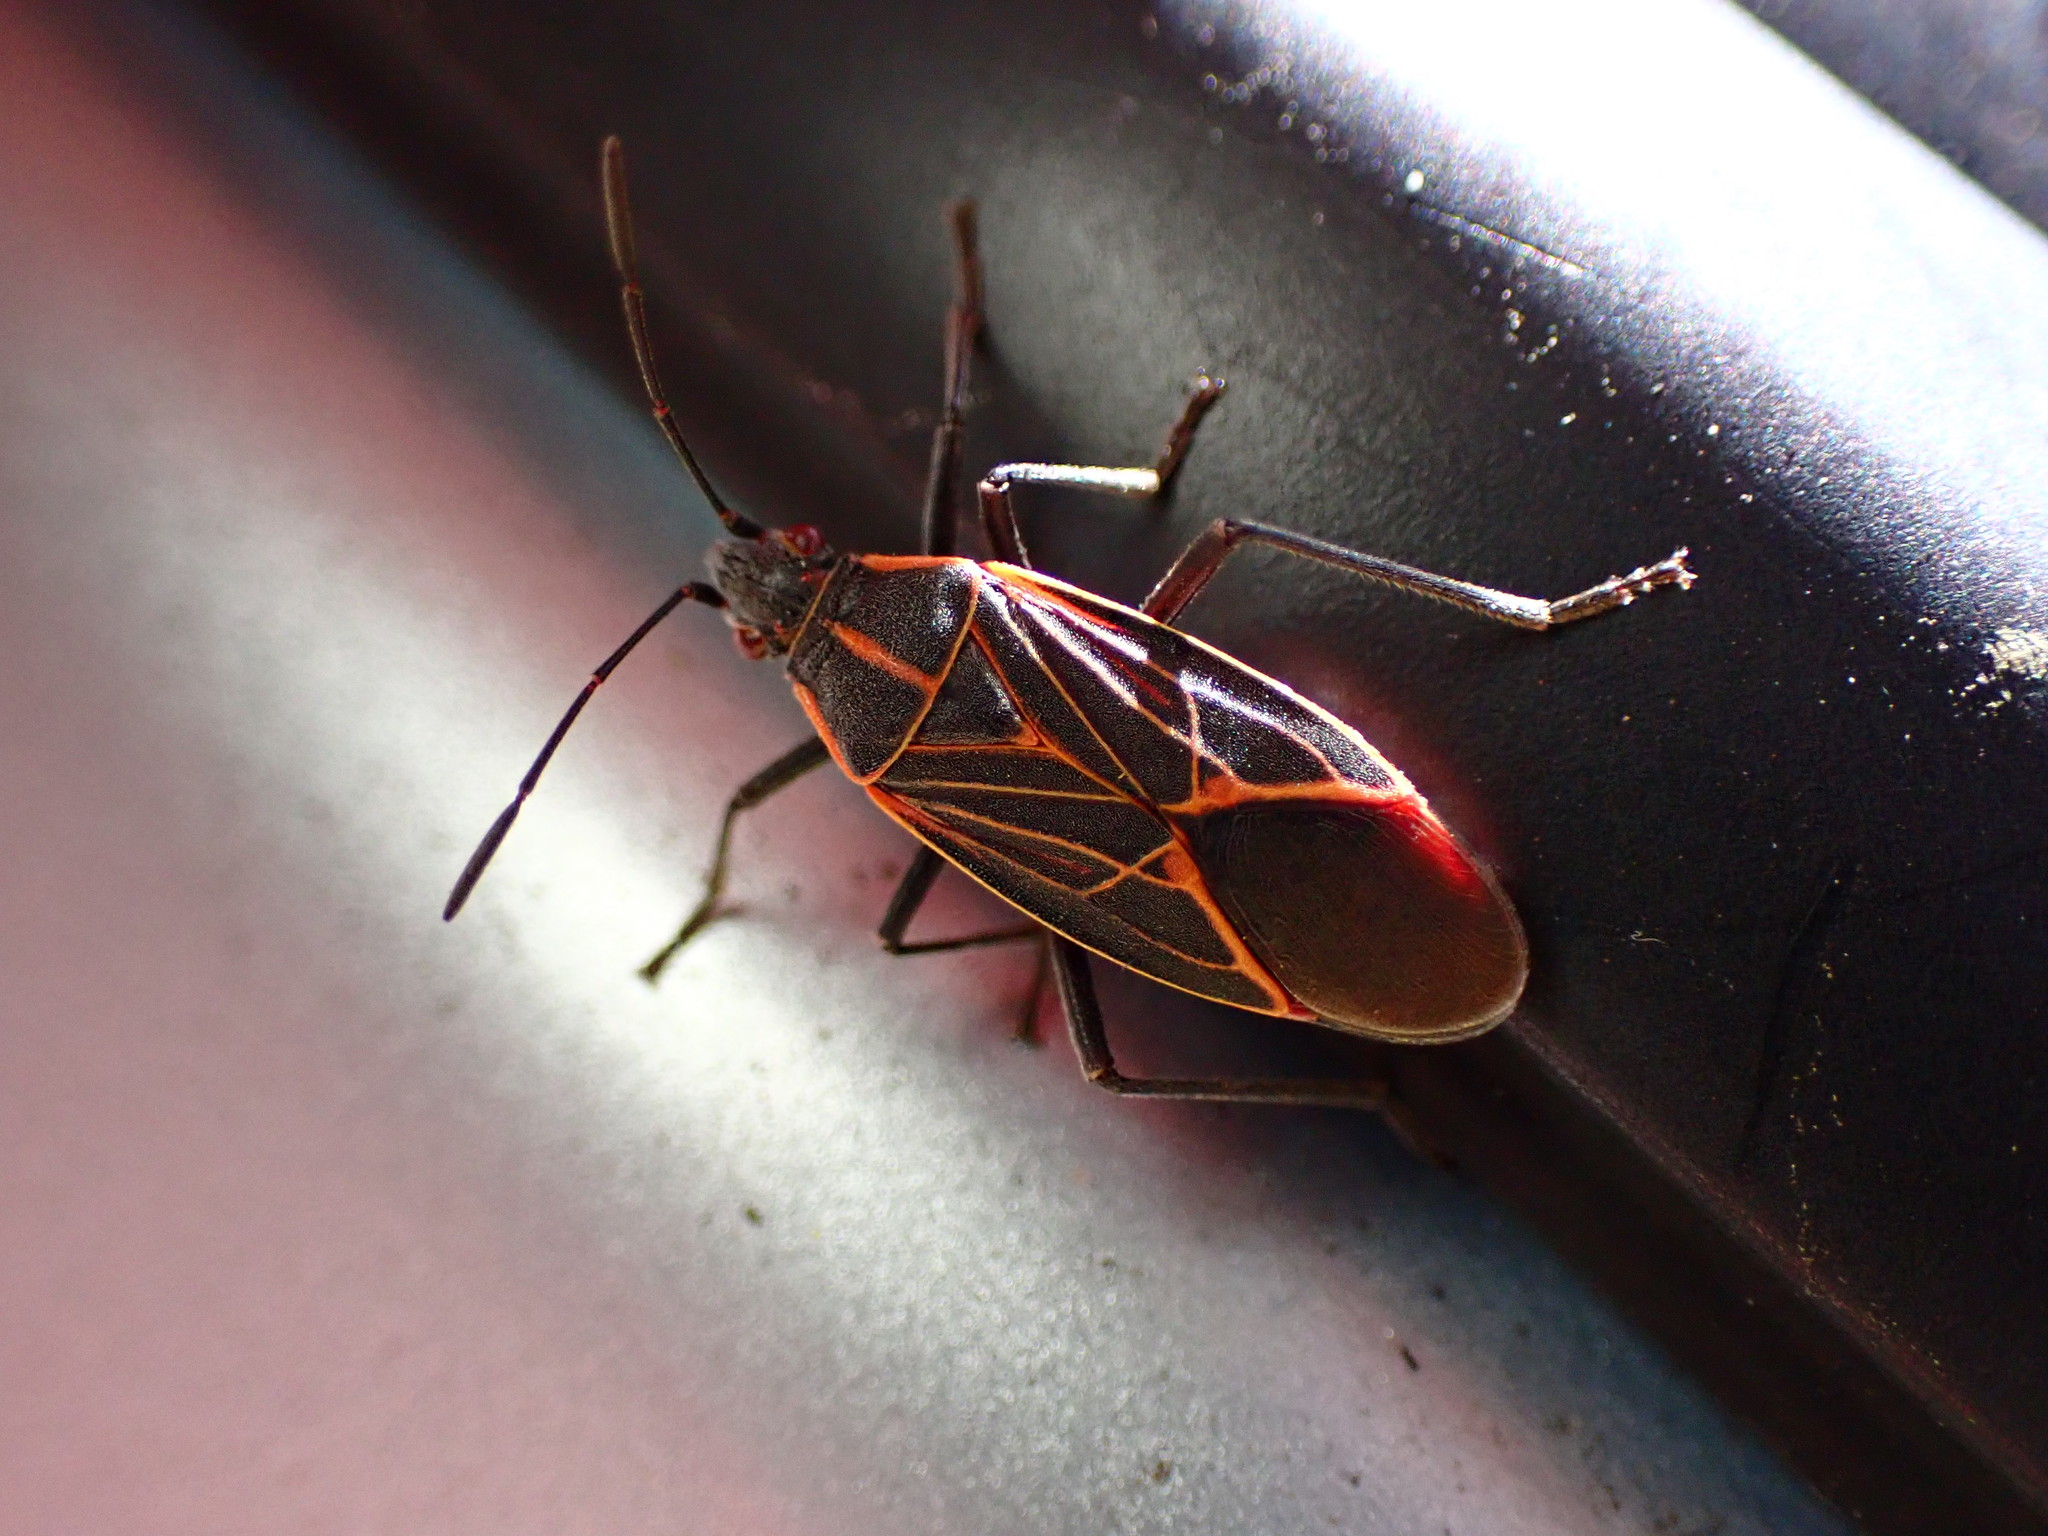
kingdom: Animalia
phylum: Arthropoda
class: Insecta
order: Hemiptera
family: Rhopalidae
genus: Boisea
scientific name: Boisea rubrolineata
